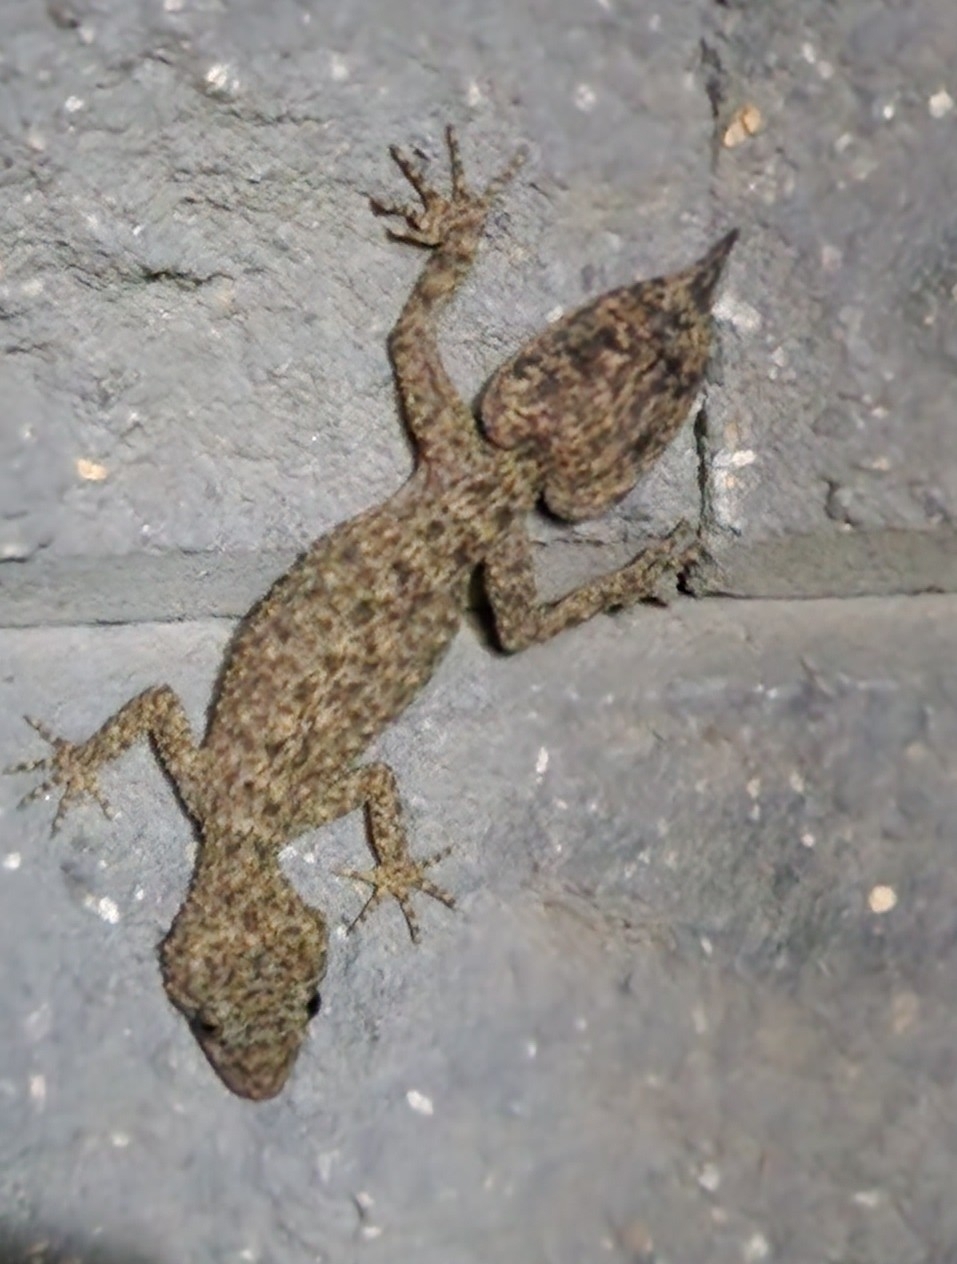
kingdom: Animalia
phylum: Chordata
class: Squamata
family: Carphodactylidae
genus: Phyllurus
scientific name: Phyllurus platurus
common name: Broad-tailed gecko
